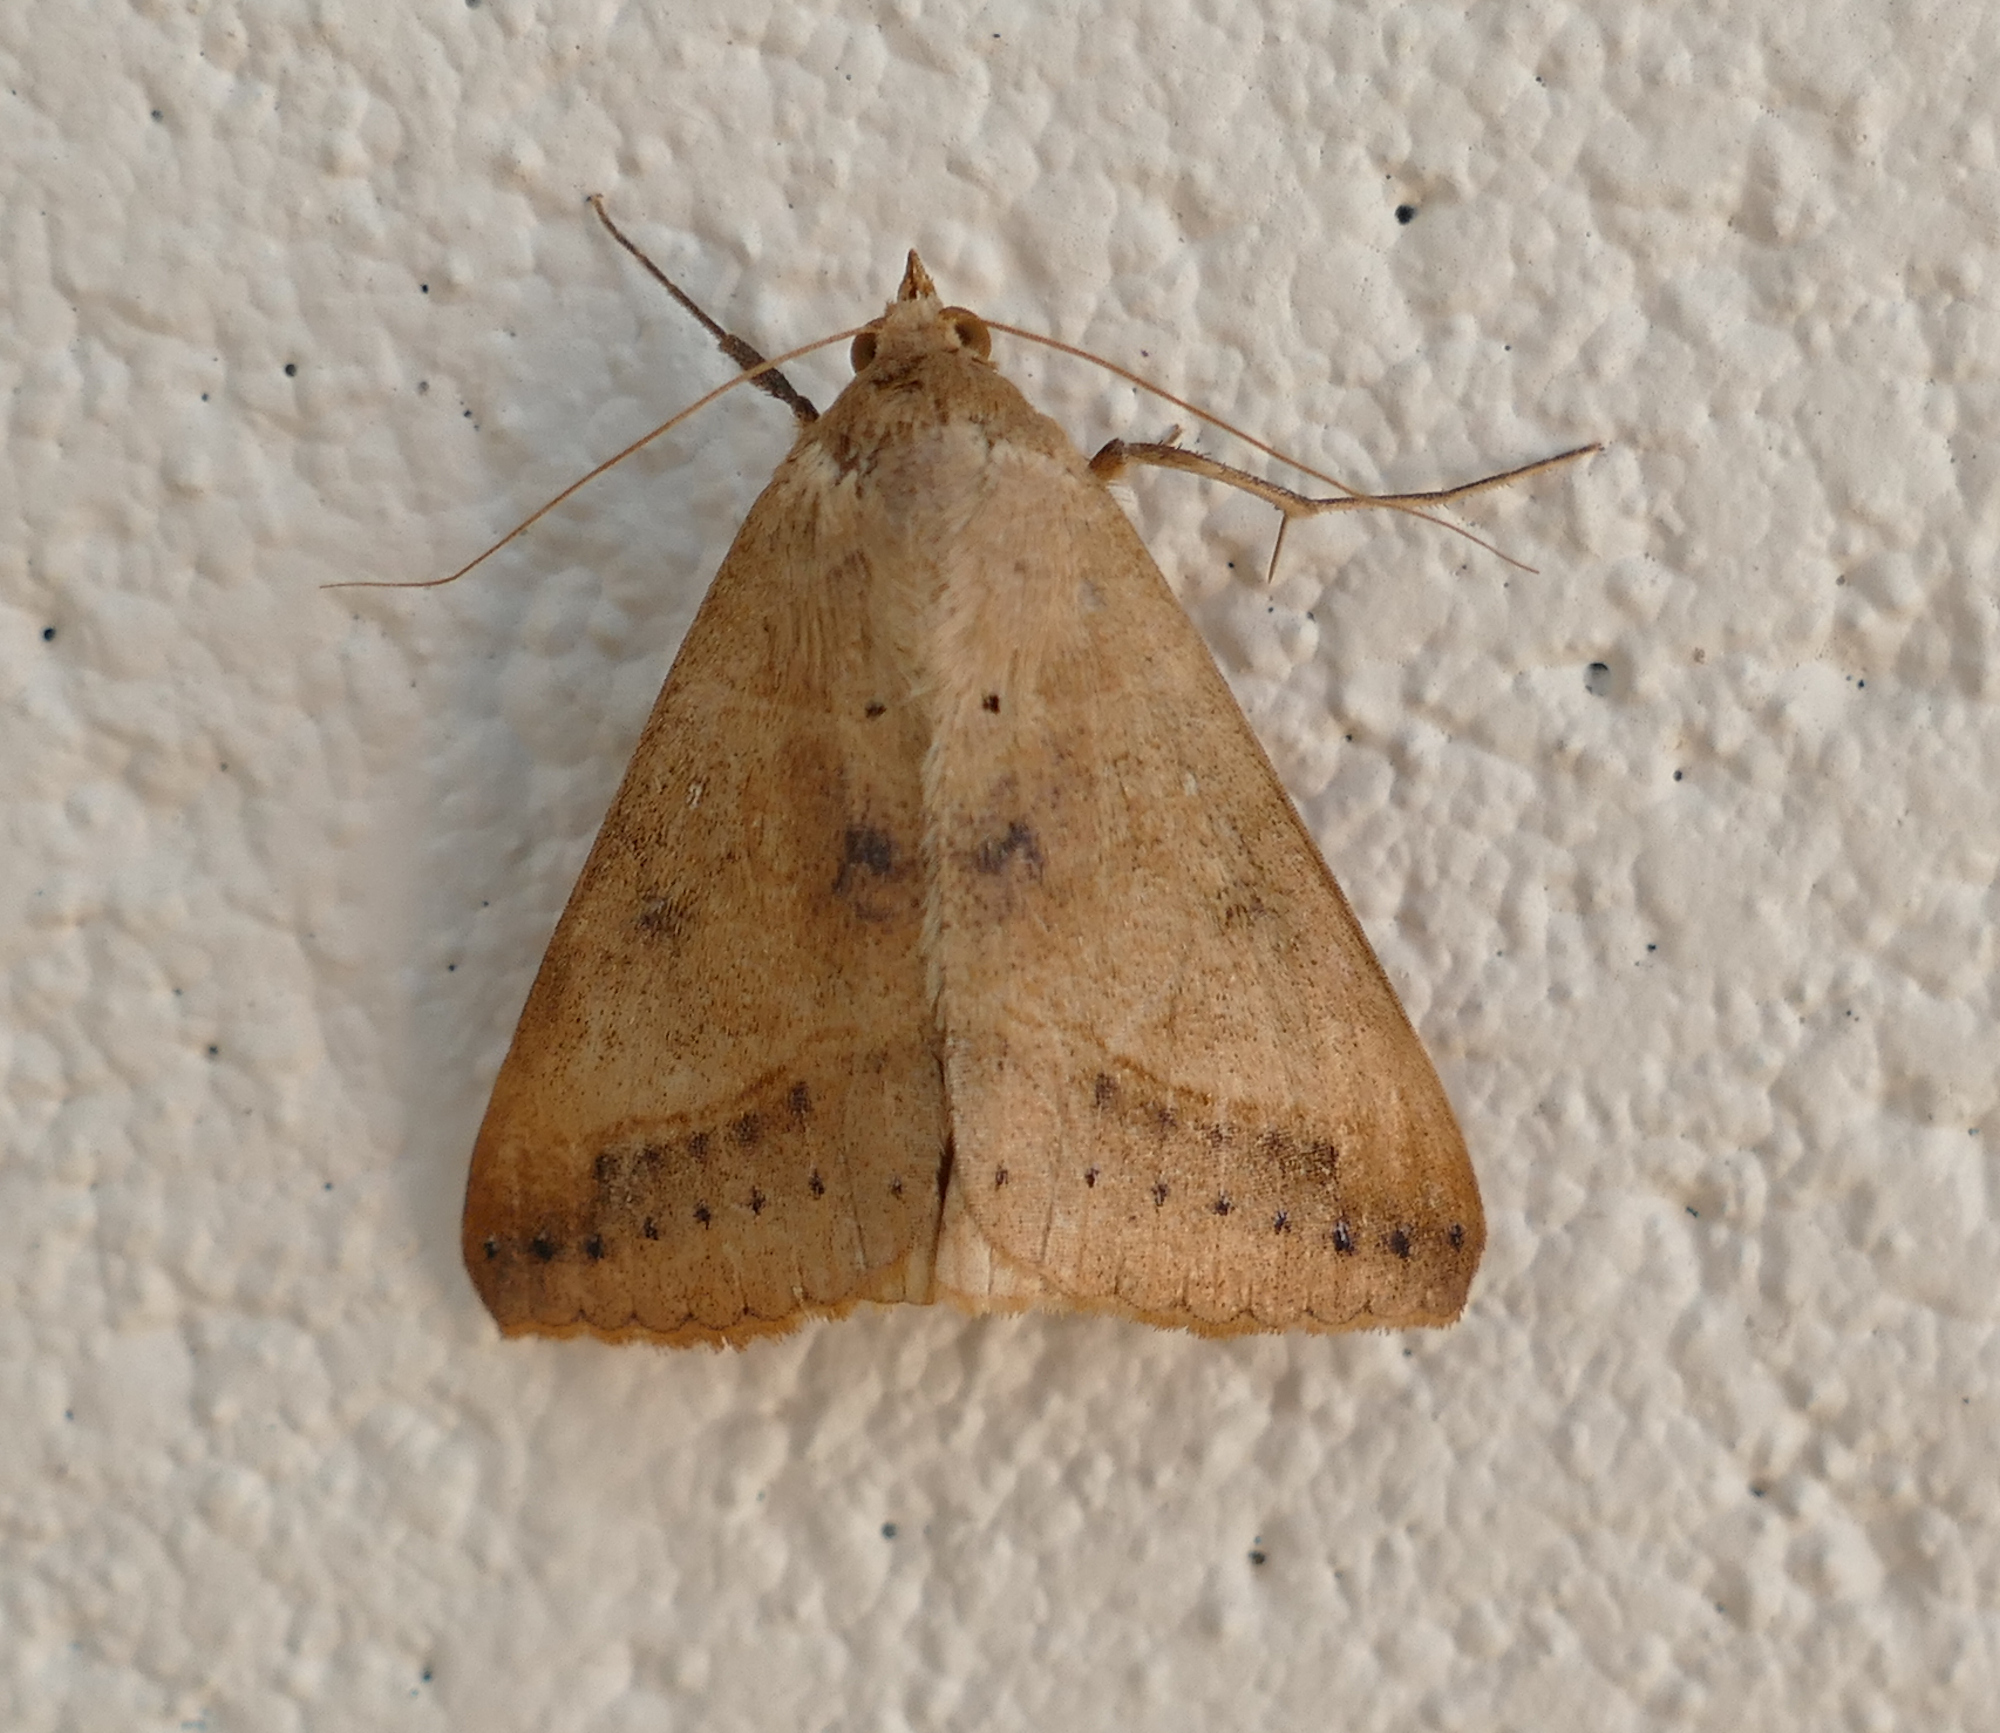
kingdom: Animalia
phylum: Arthropoda
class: Insecta
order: Lepidoptera
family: Erebidae
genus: Mocis
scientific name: Mocis disseverans
